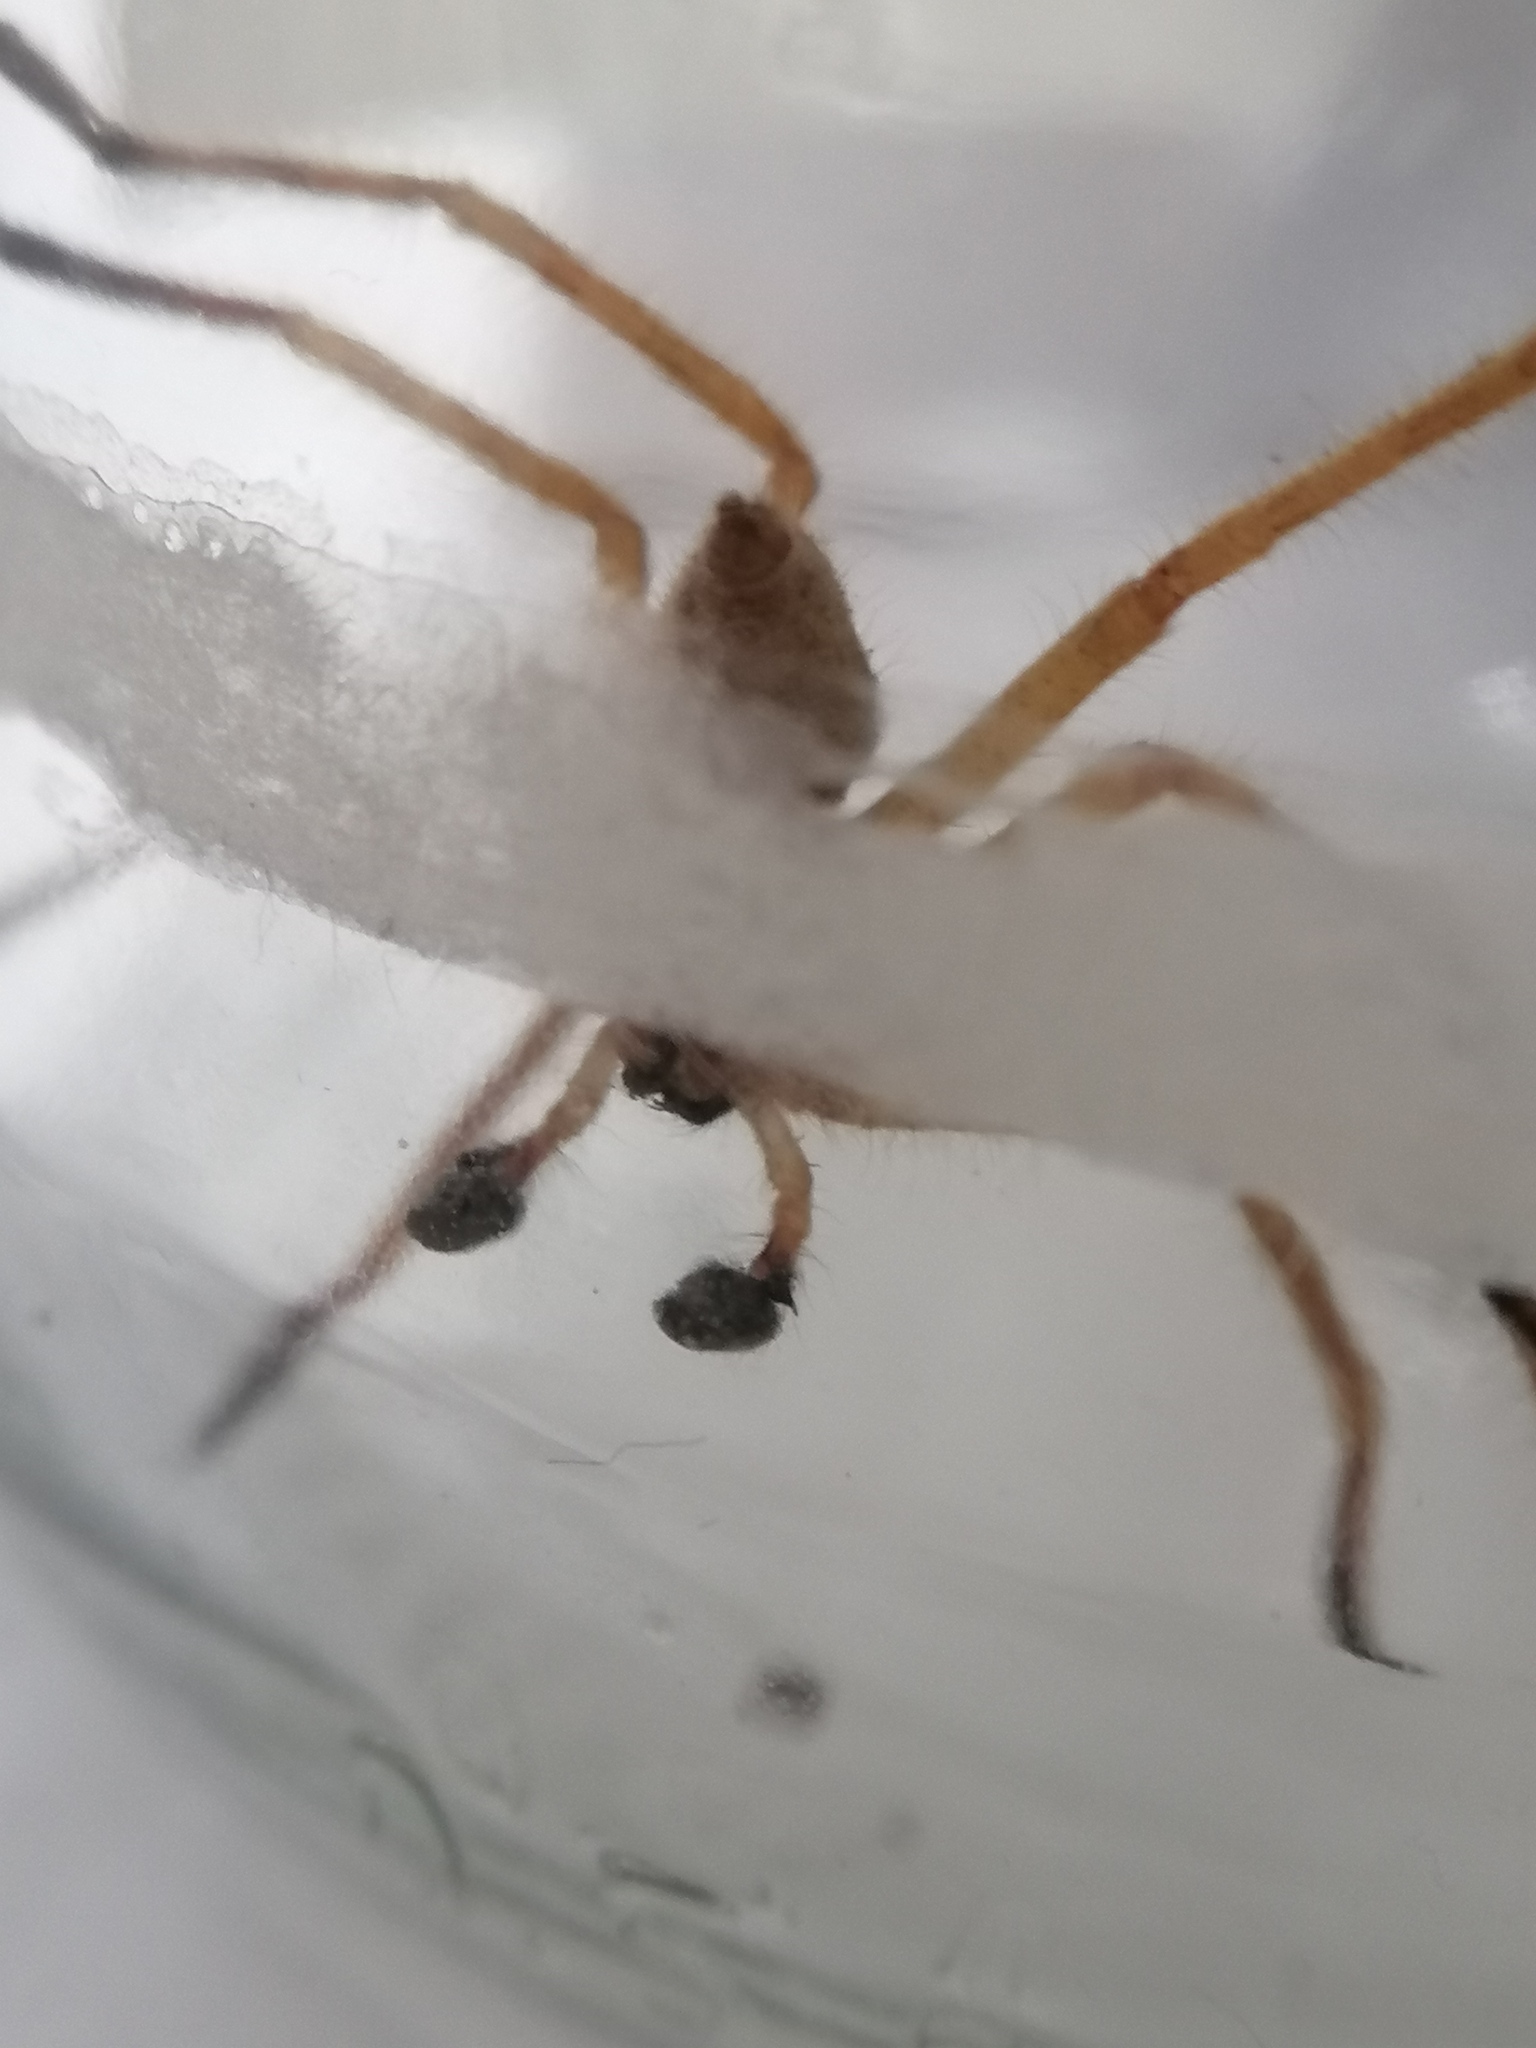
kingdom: Animalia
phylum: Arthropoda
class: Arachnida
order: Araneae
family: Sparassidae
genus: Olios
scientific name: Olios sericeus
